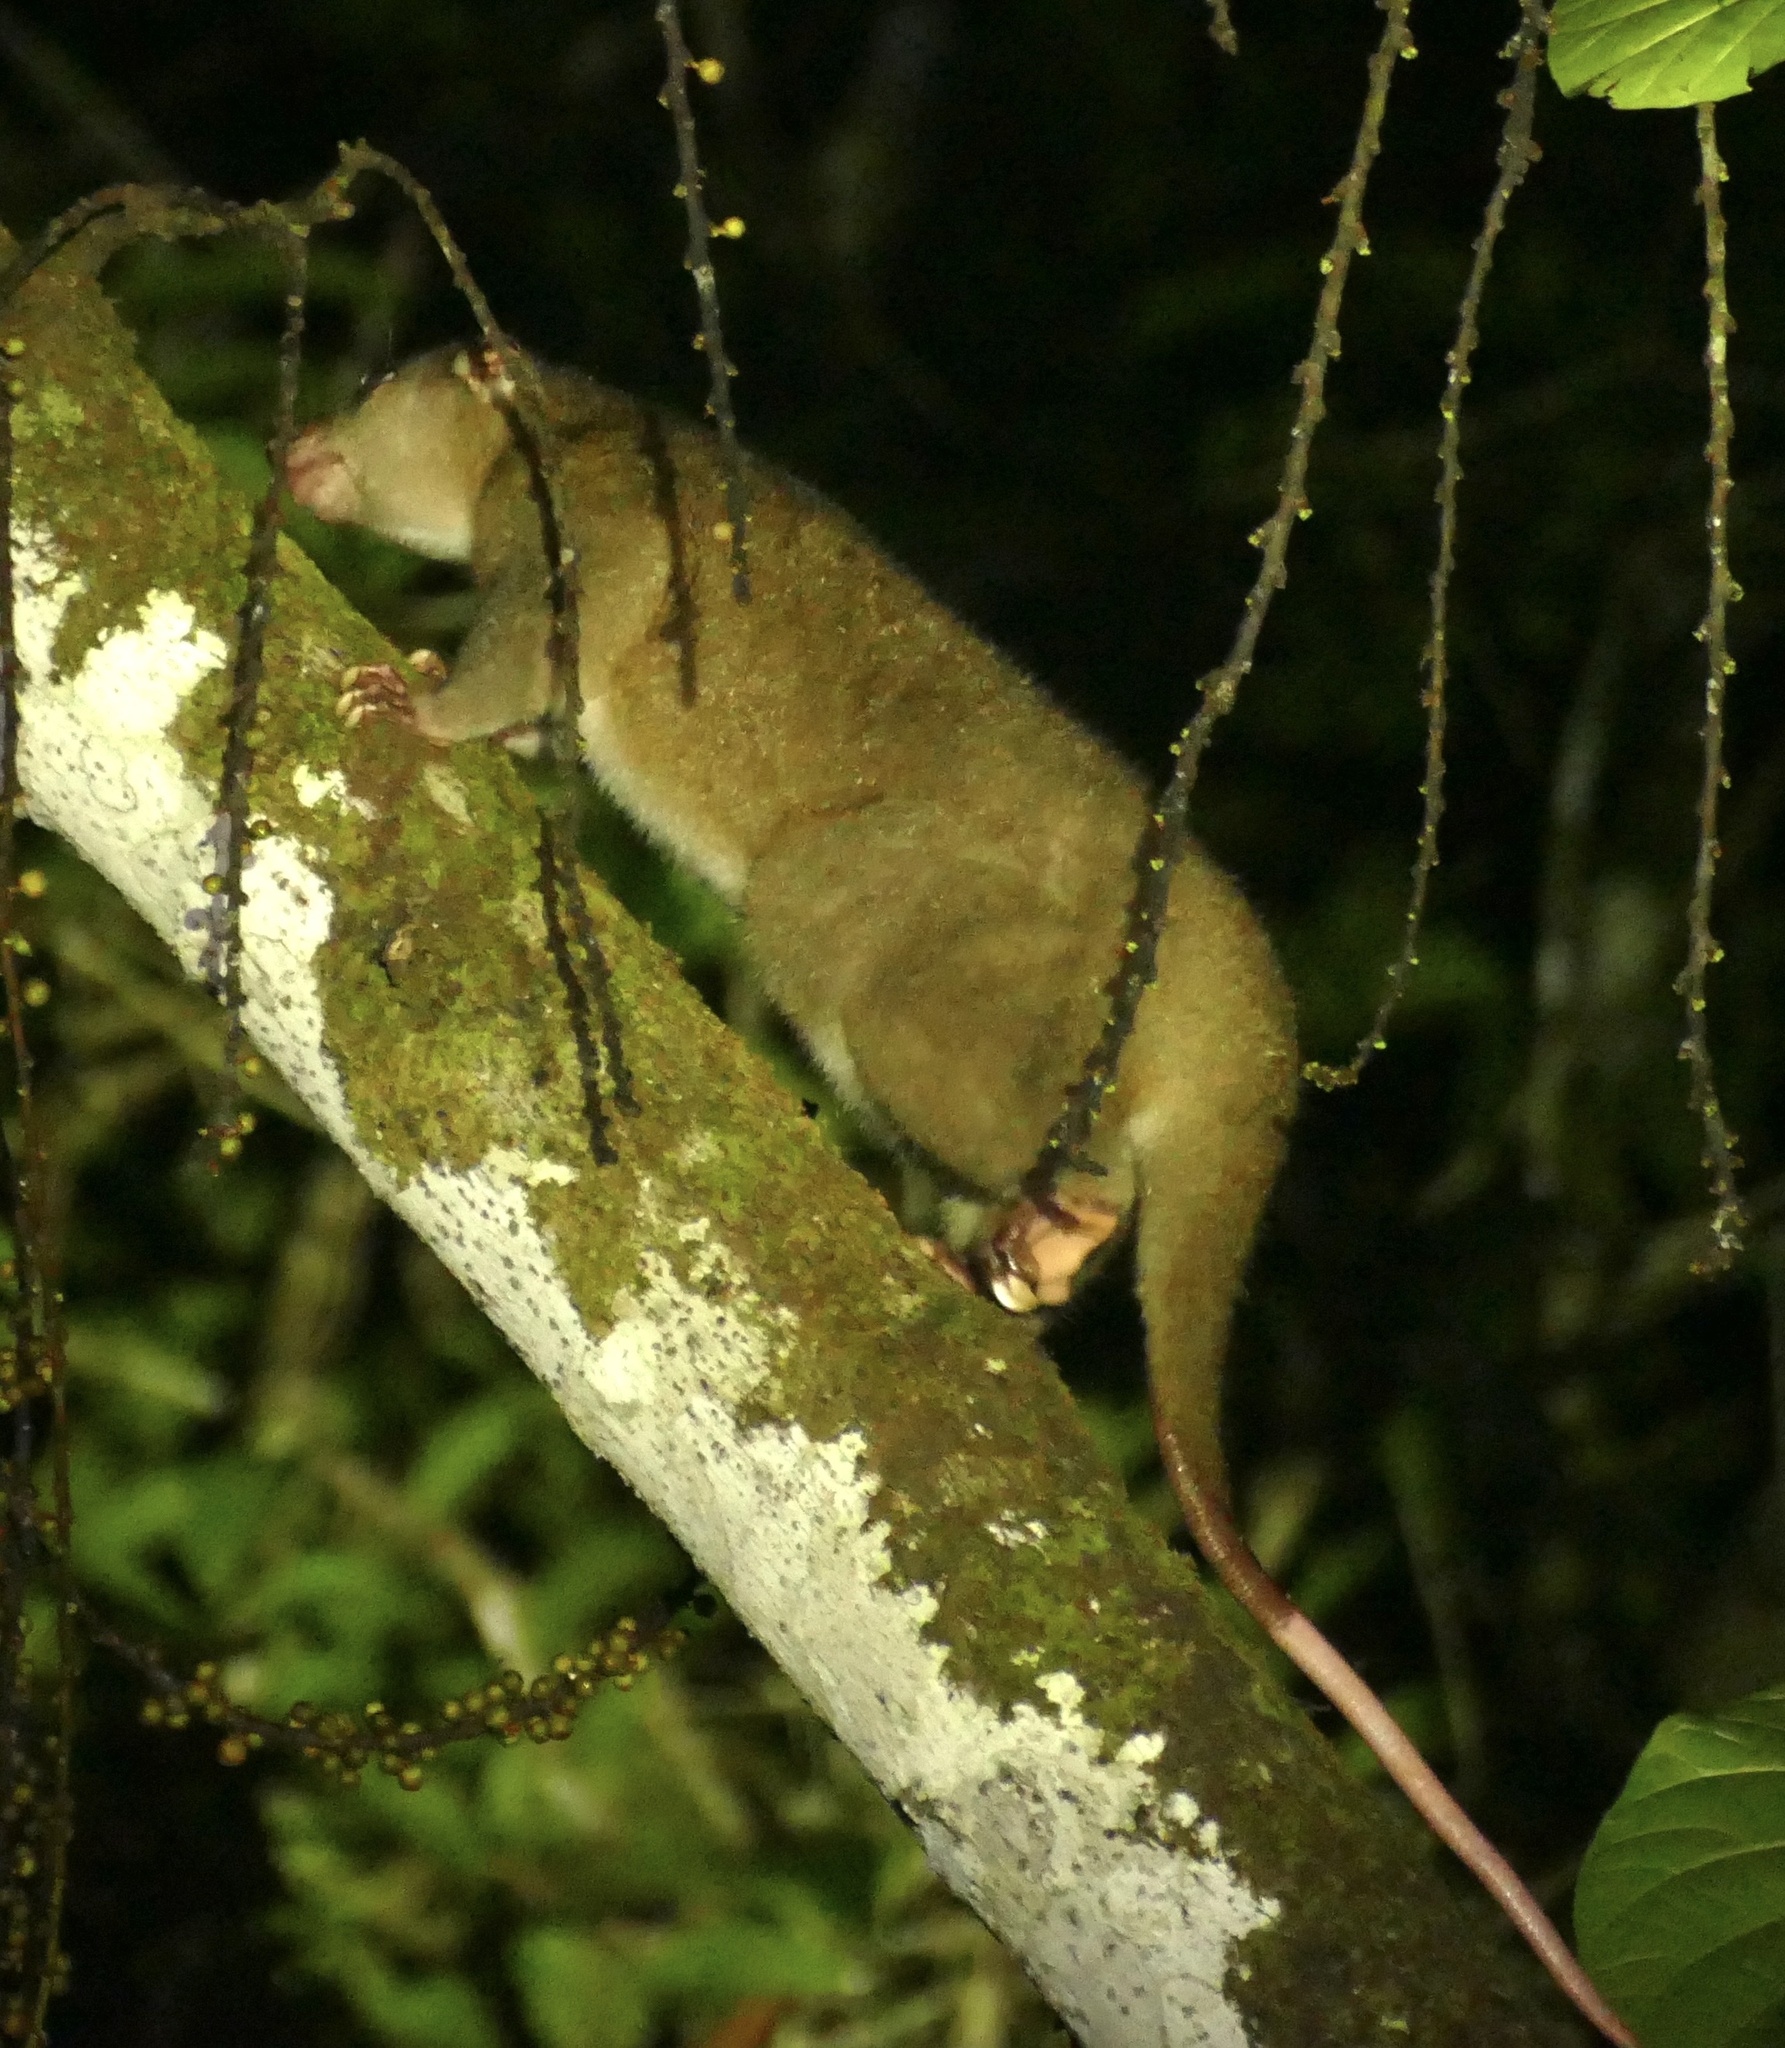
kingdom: Animalia
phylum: Chordata
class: Mammalia
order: Diprotodontia
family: Phalangeridae
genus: Phalanger
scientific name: Phalanger orientalis
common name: Northern common cuscus
